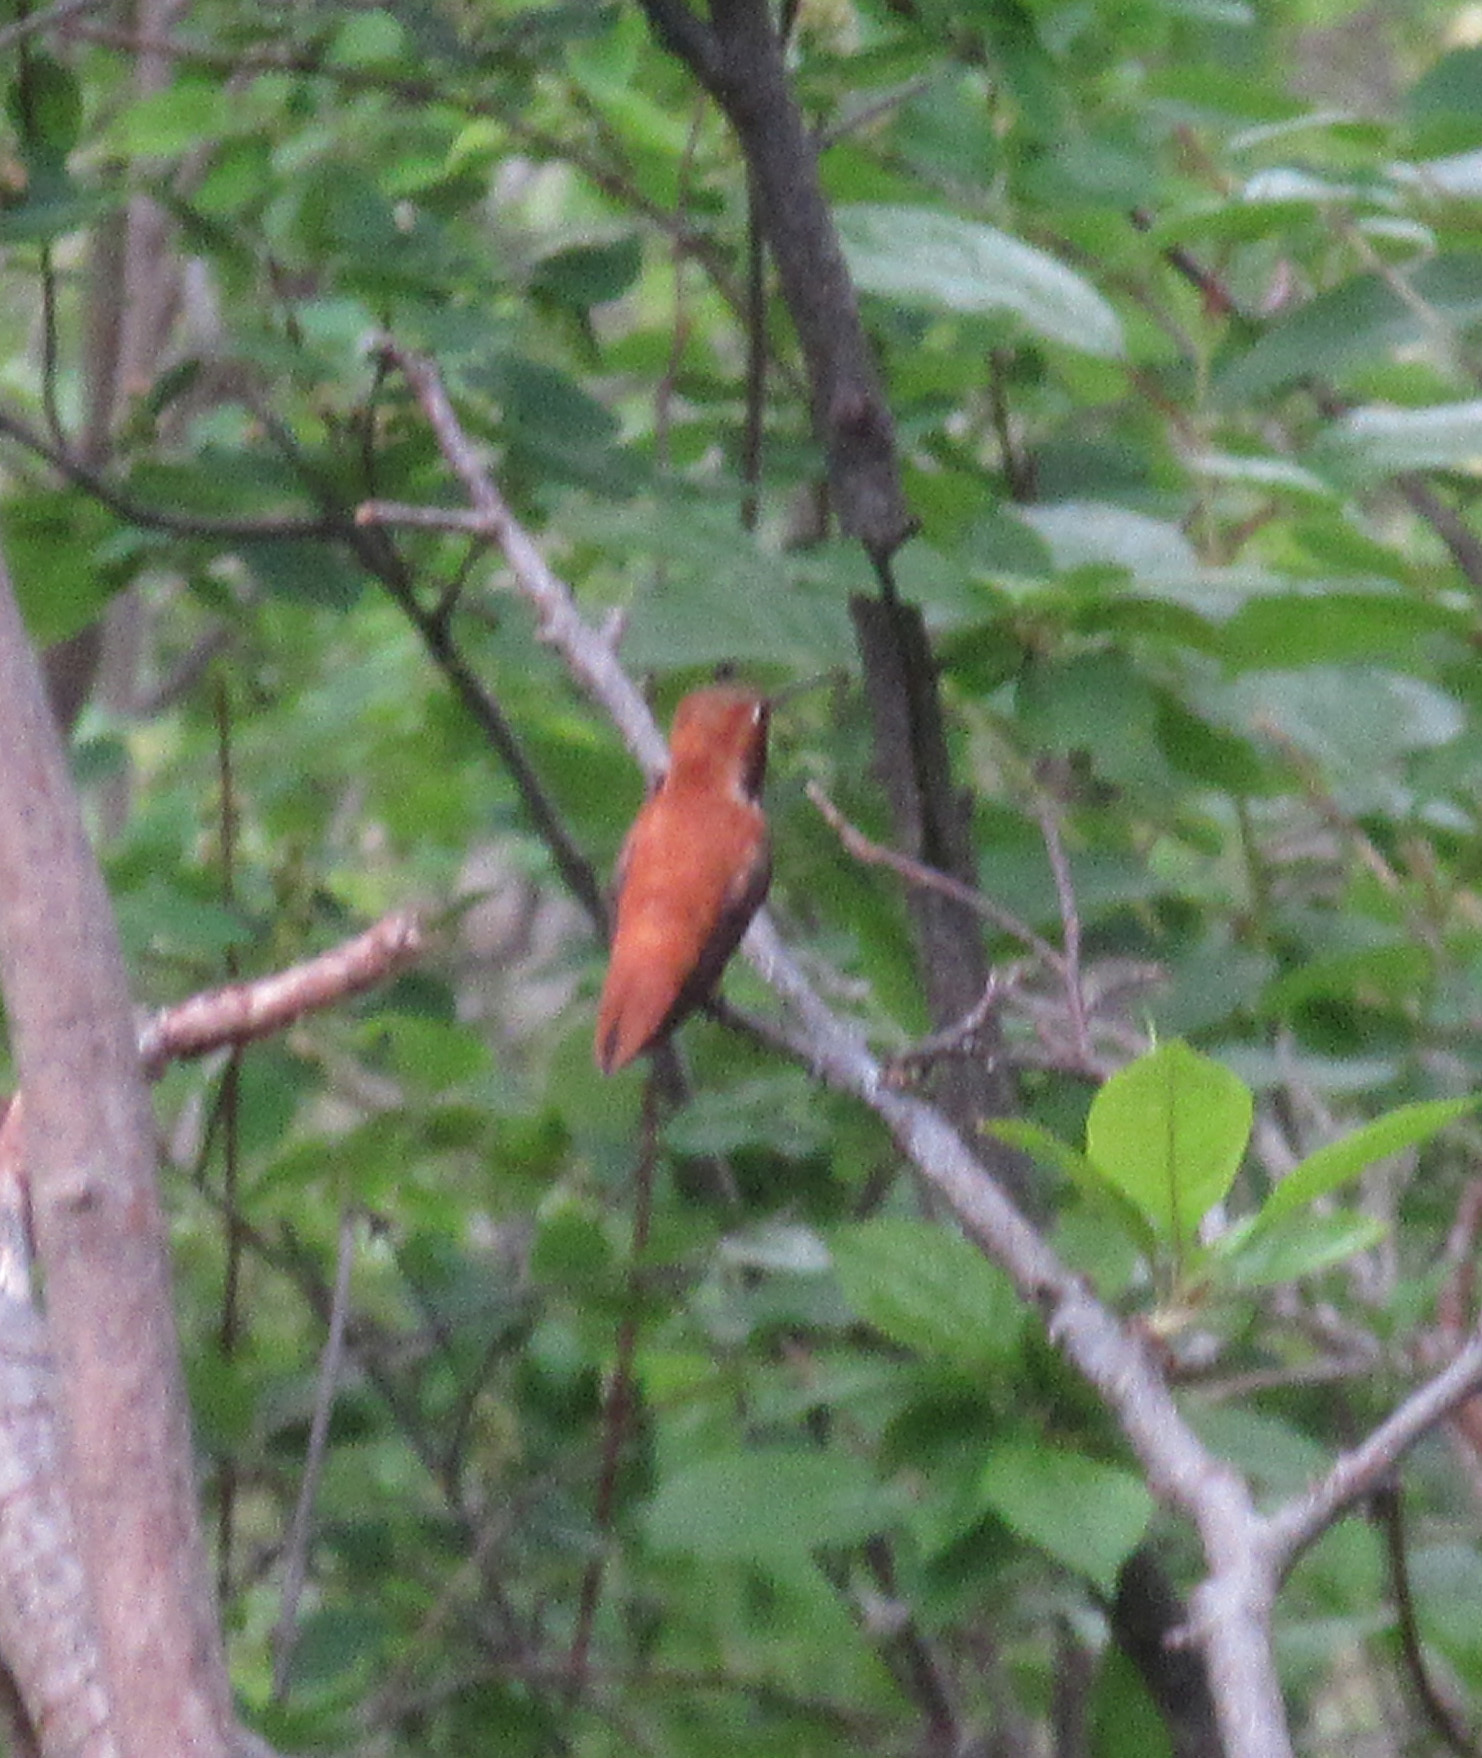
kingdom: Animalia
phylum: Chordata
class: Aves
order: Apodiformes
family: Trochilidae
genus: Selasphorus
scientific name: Selasphorus rufus
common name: Rufous hummingbird
